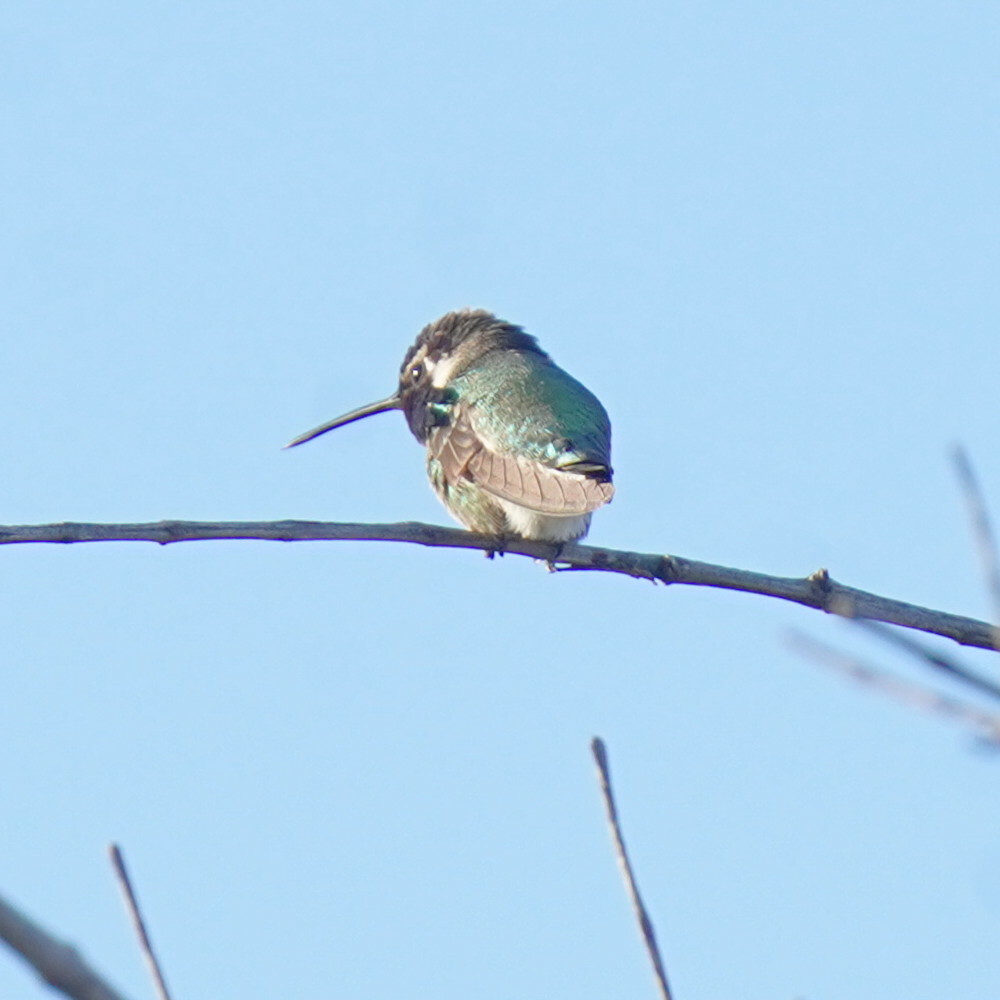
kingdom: Animalia
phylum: Chordata
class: Aves
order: Apodiformes
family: Trochilidae
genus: Calypte
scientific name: Calypte costae
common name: Costa's hummingbird
